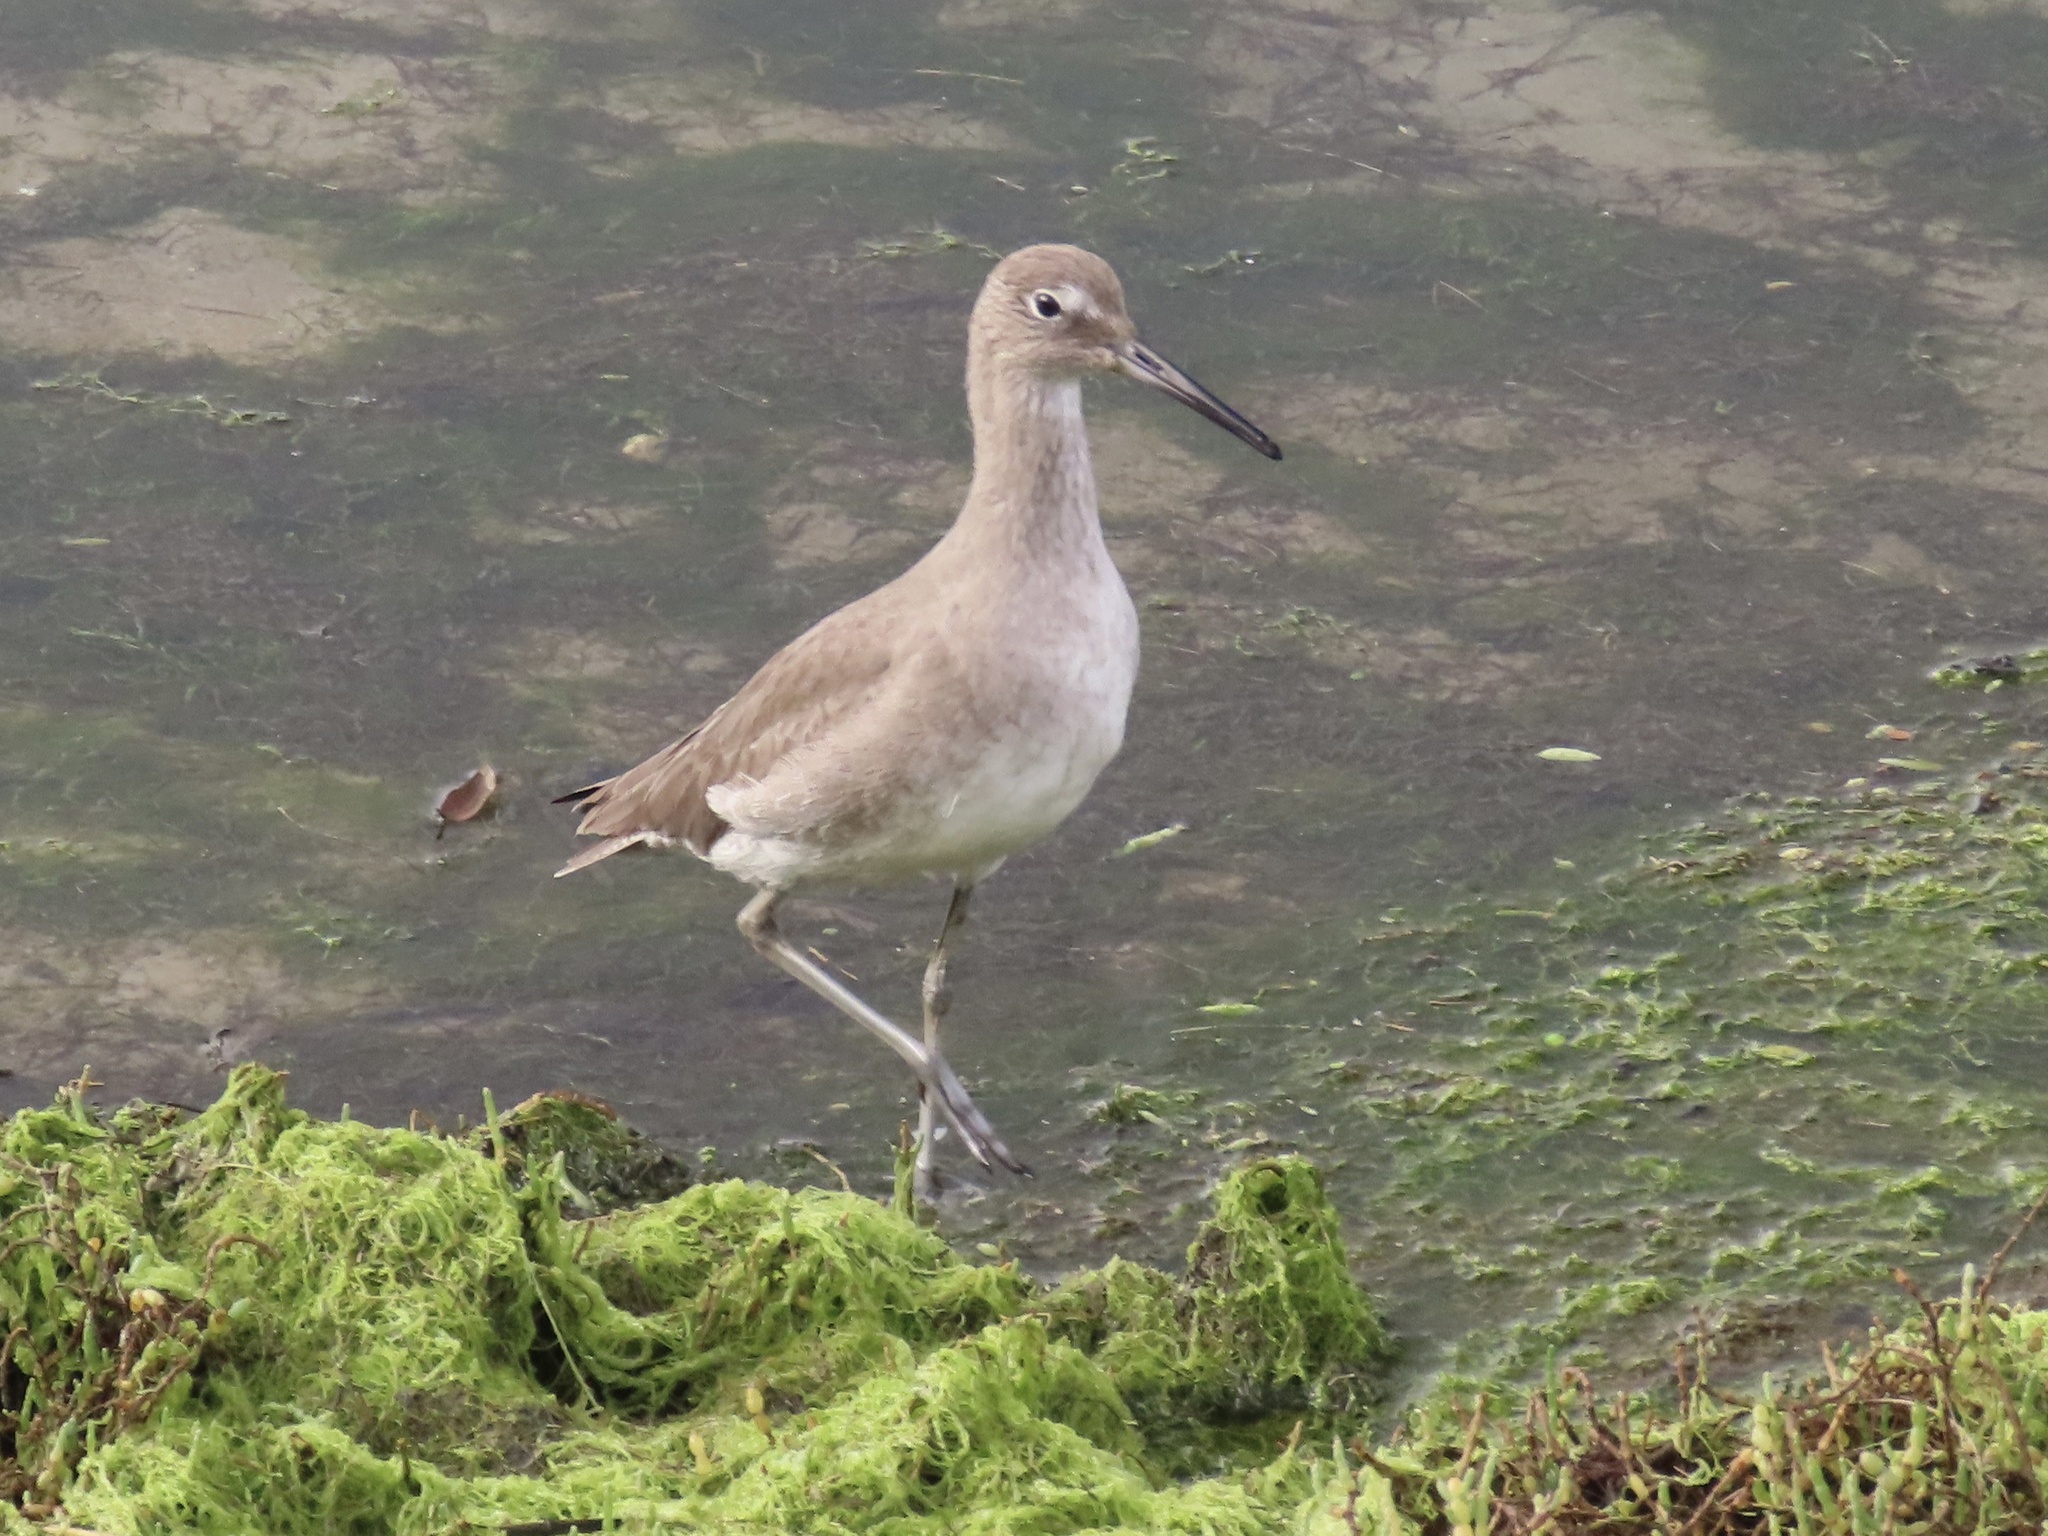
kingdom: Animalia
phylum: Chordata
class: Aves
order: Charadriiformes
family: Scolopacidae
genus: Tringa
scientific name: Tringa semipalmata
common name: Willet
